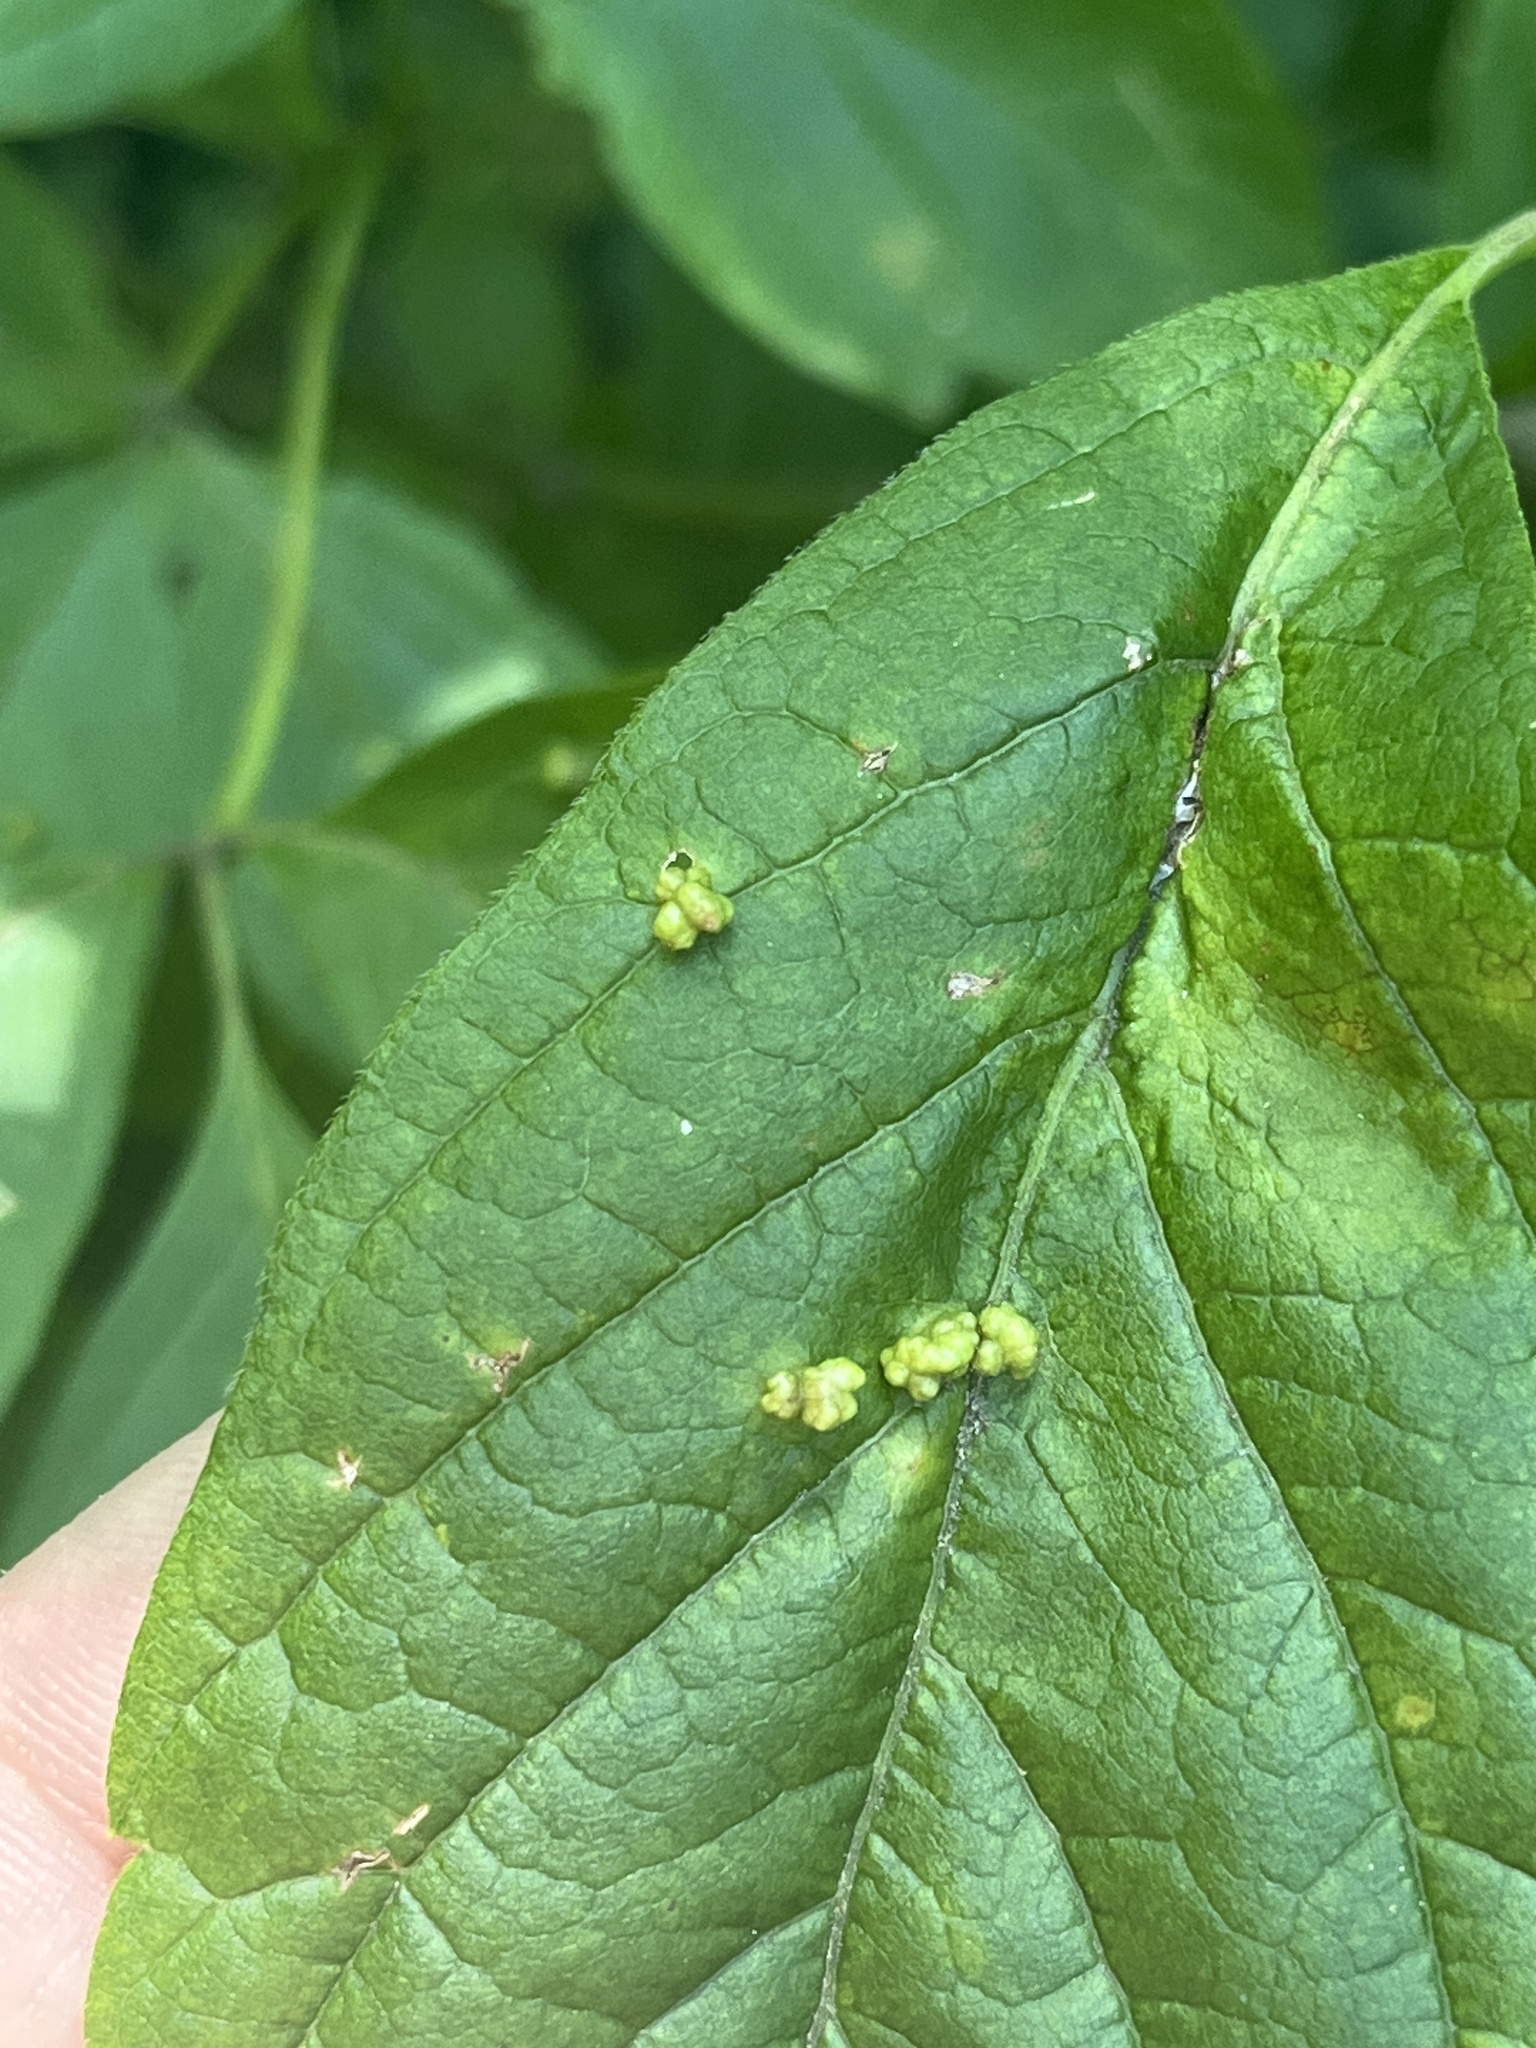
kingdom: Animalia
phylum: Arthropoda
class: Arachnida
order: Trombidiformes
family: Eriophyidae
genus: Aceria
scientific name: Aceria
